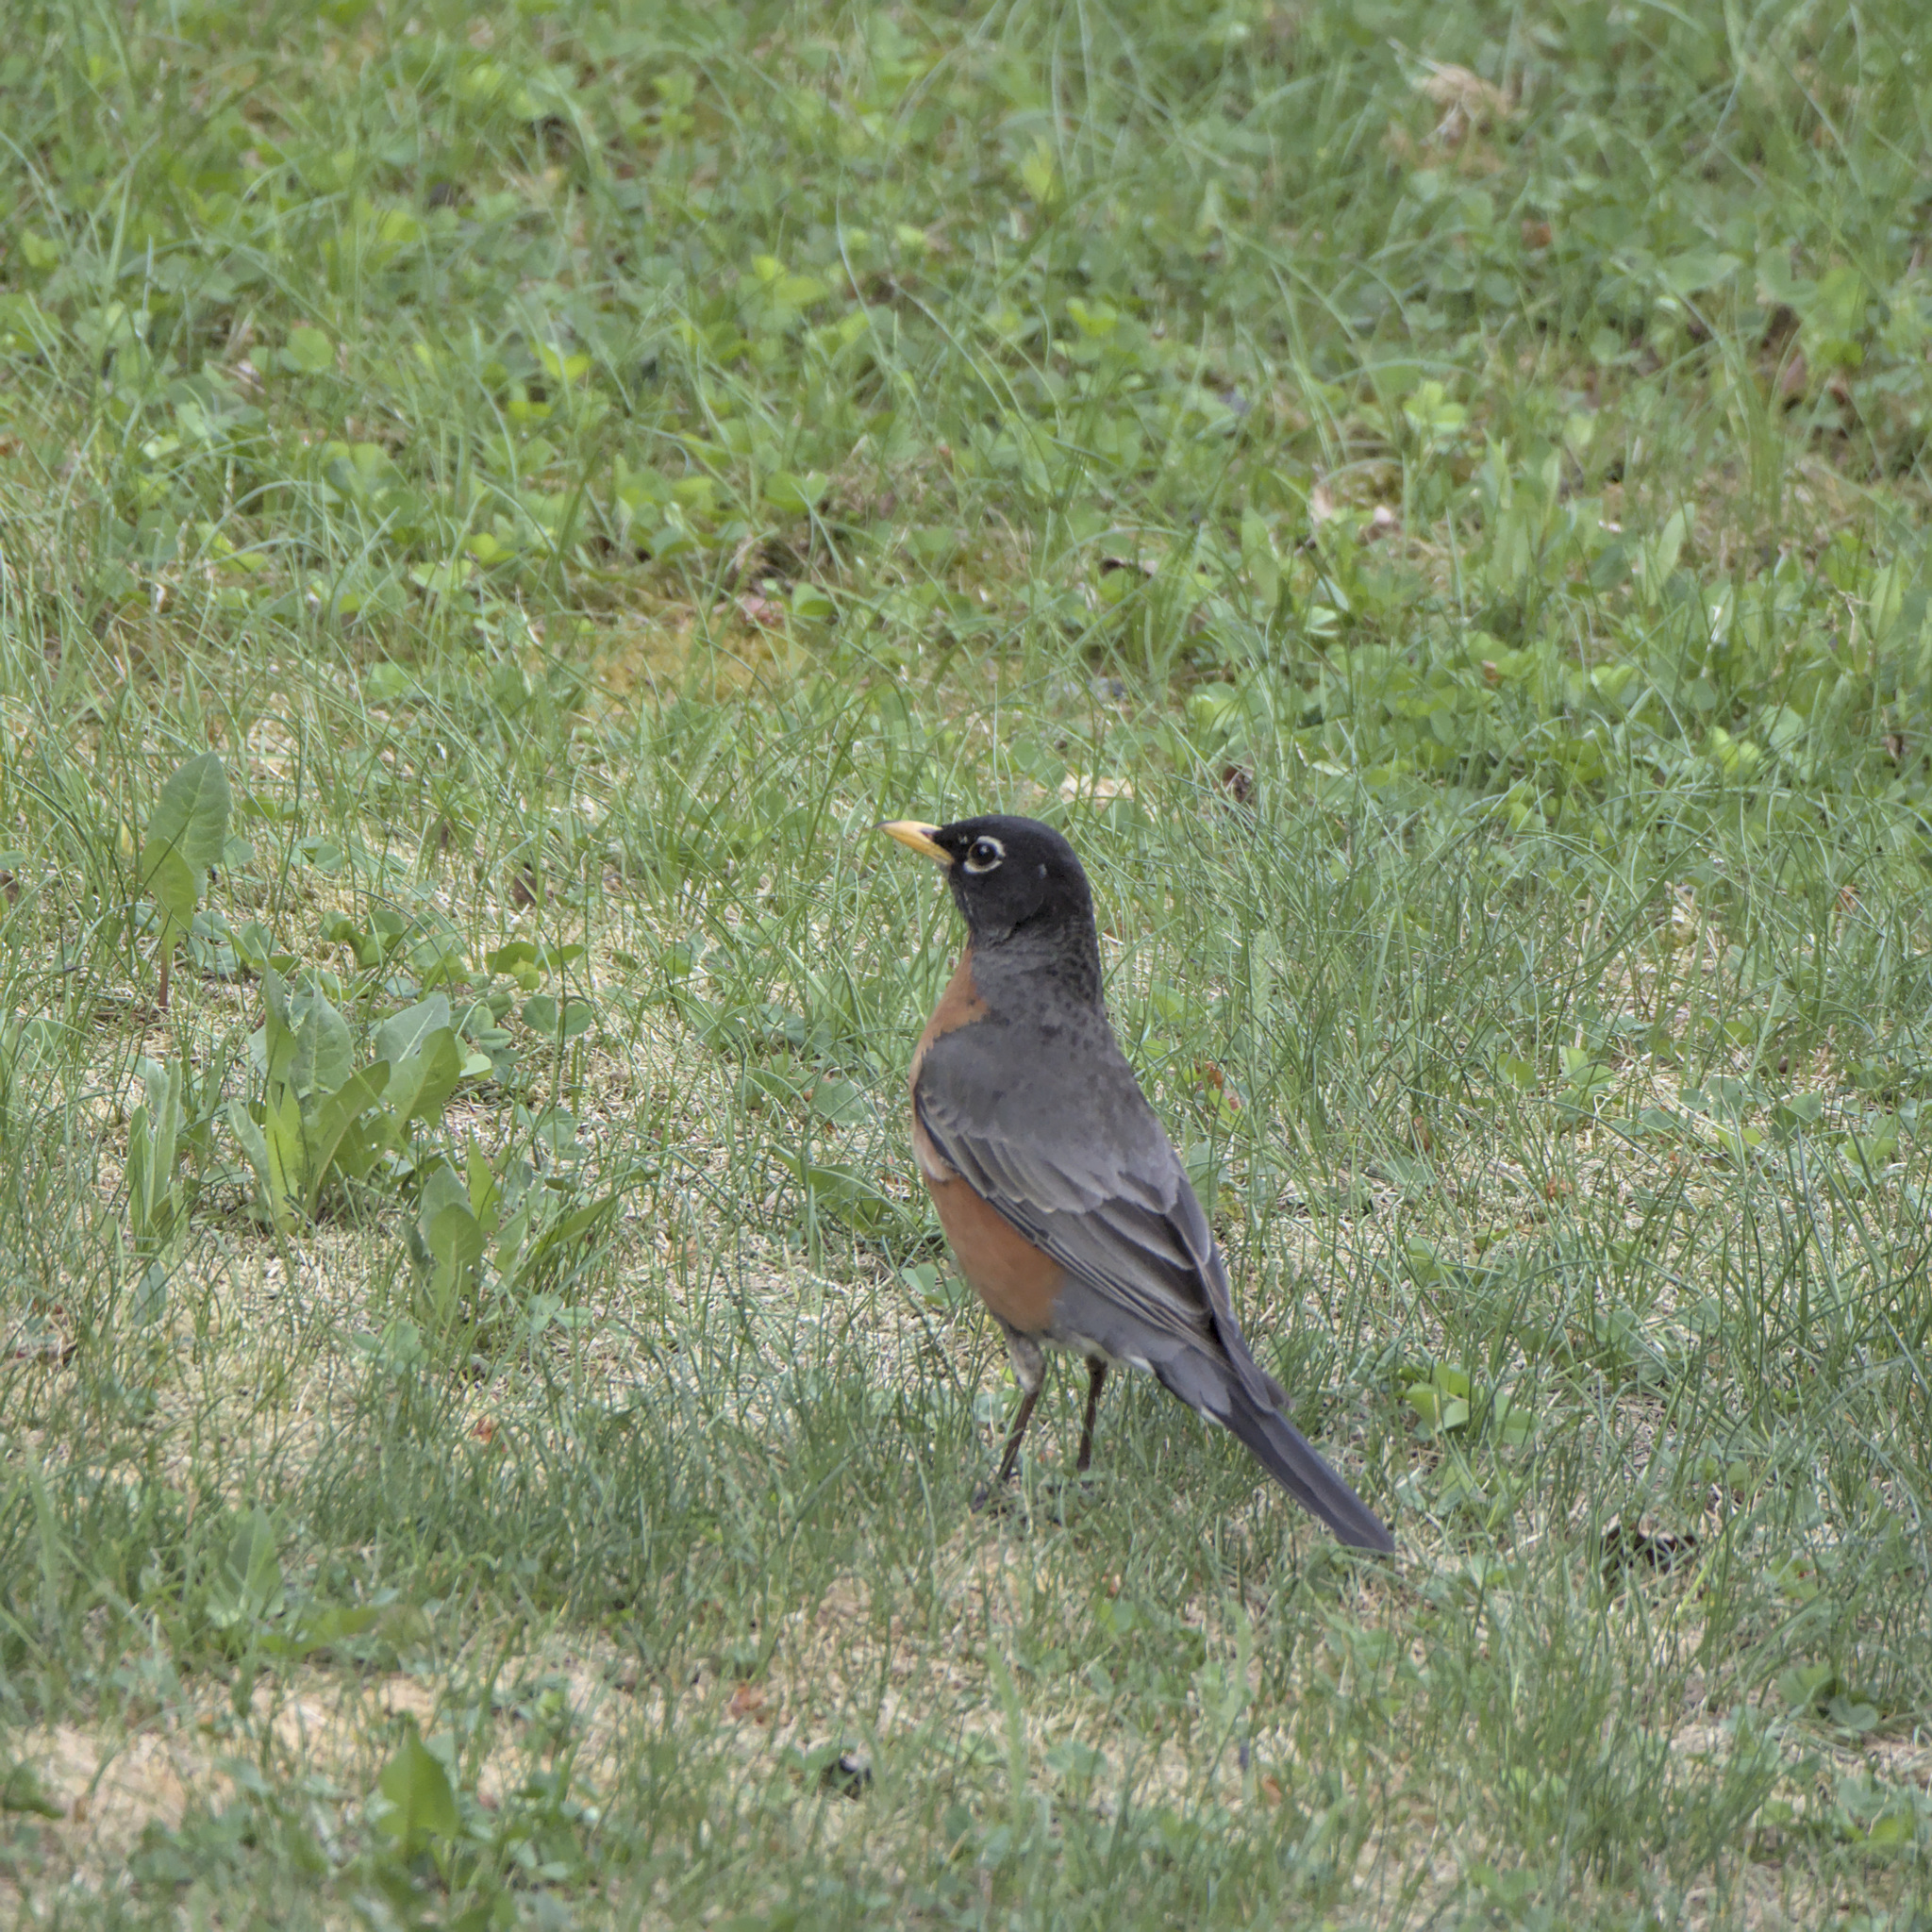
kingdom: Animalia
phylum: Chordata
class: Aves
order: Passeriformes
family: Turdidae
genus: Turdus
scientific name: Turdus migratorius
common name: American robin
